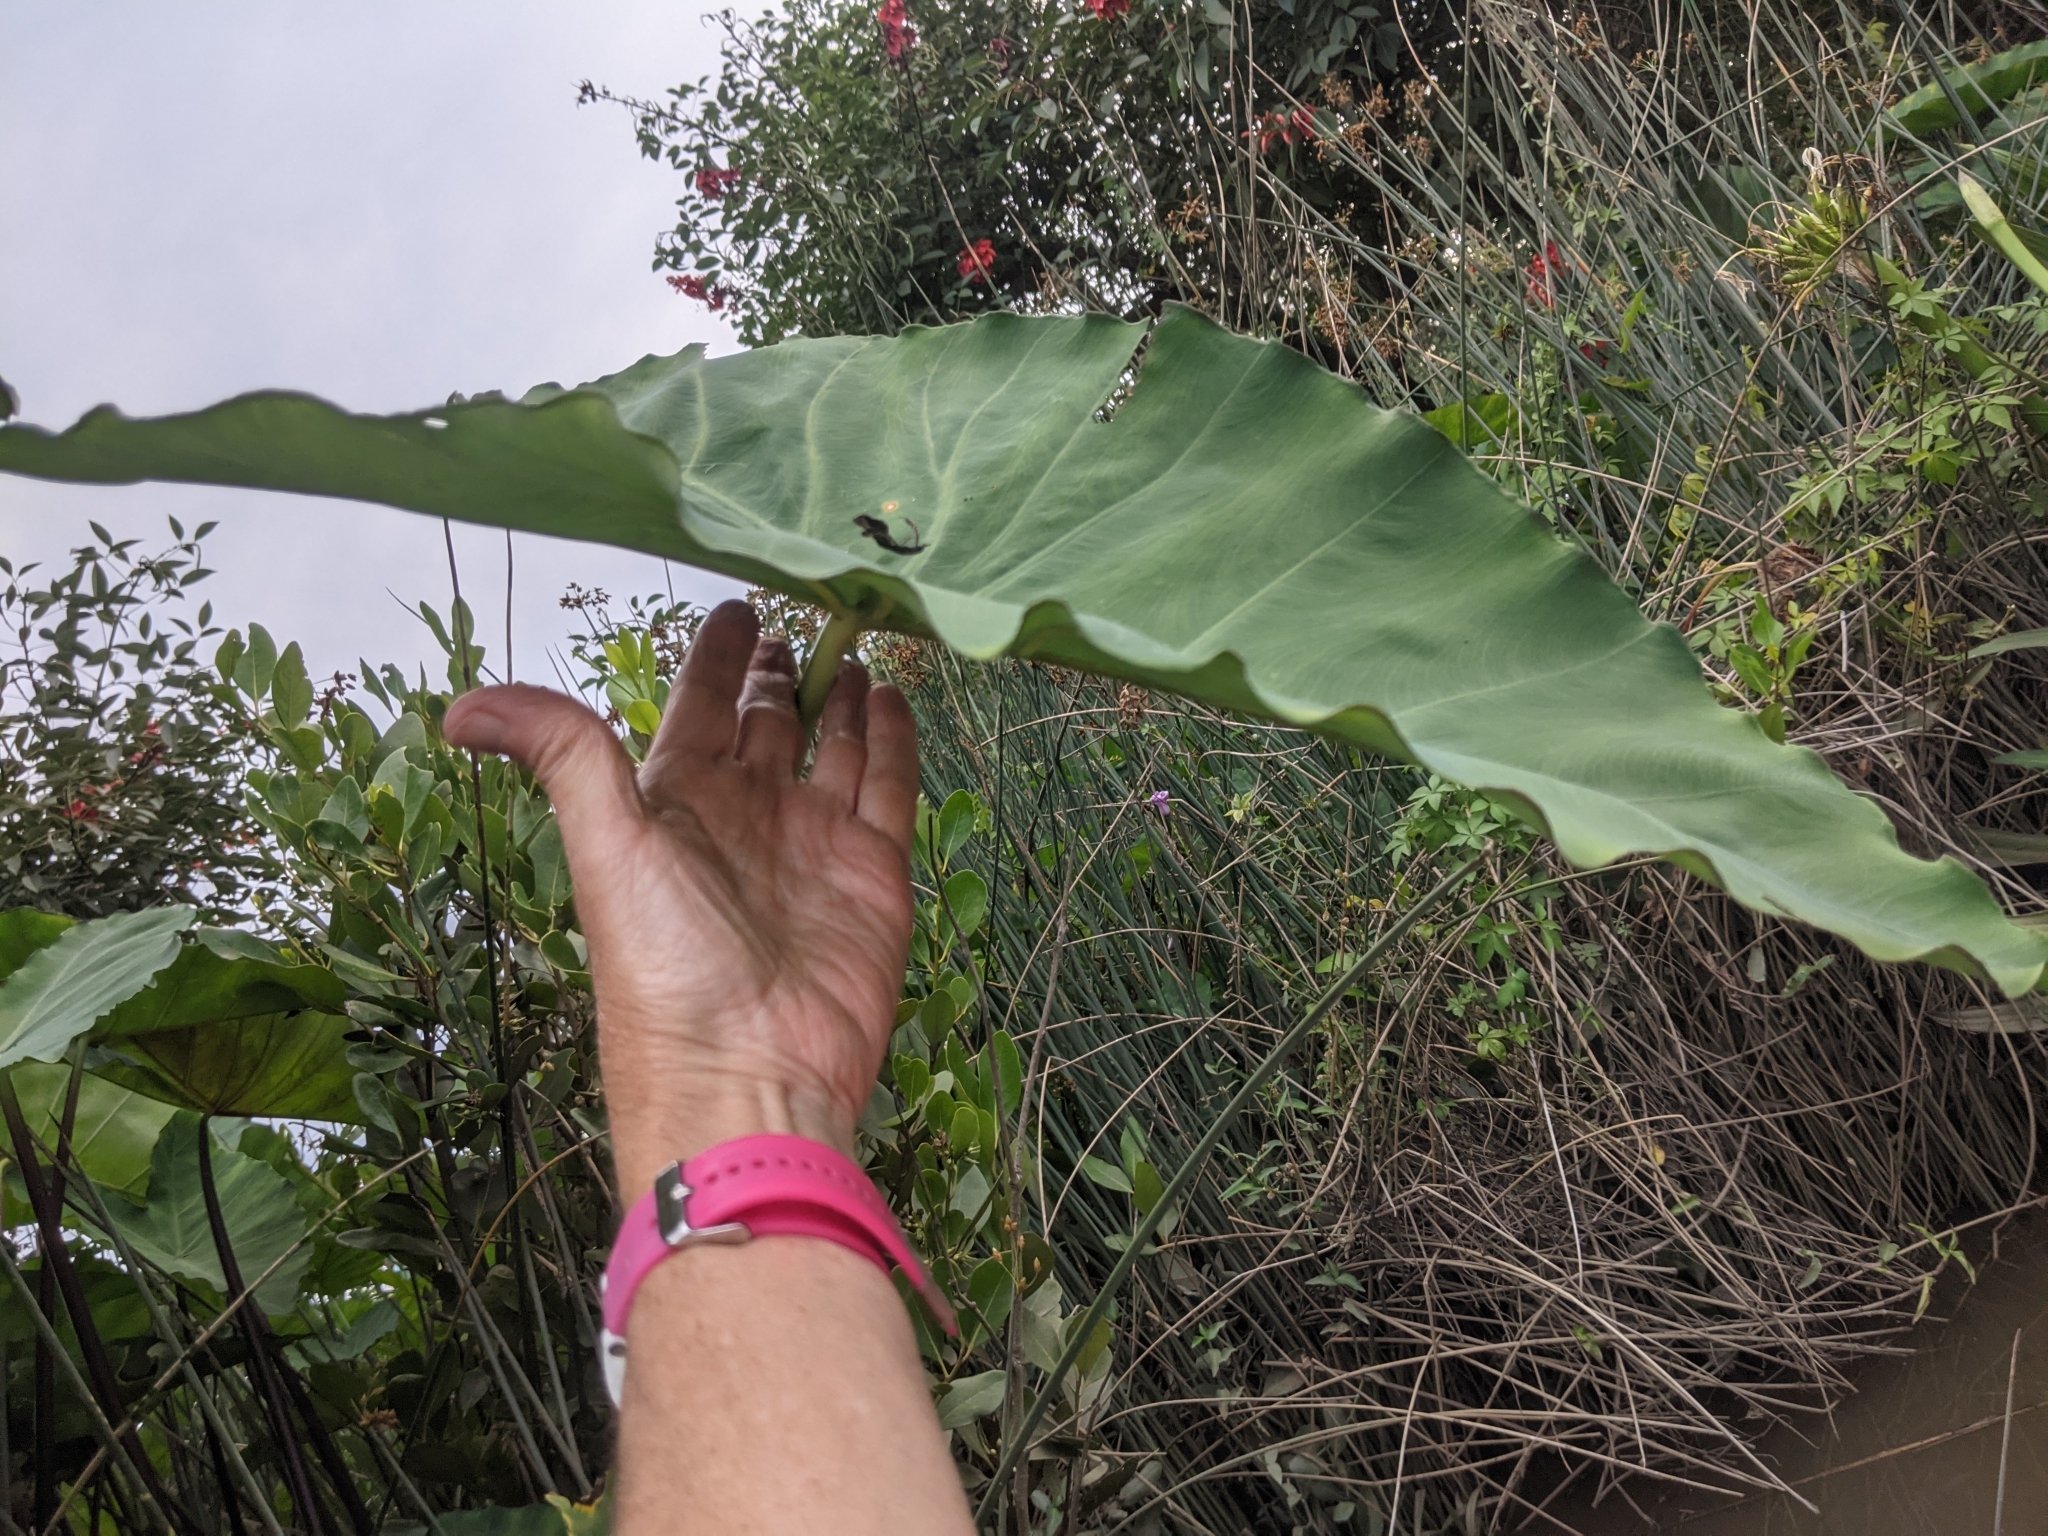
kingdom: Plantae
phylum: Tracheophyta
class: Liliopsida
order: Alismatales
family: Araceae
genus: Colocasia
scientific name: Colocasia esculenta
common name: Taro
